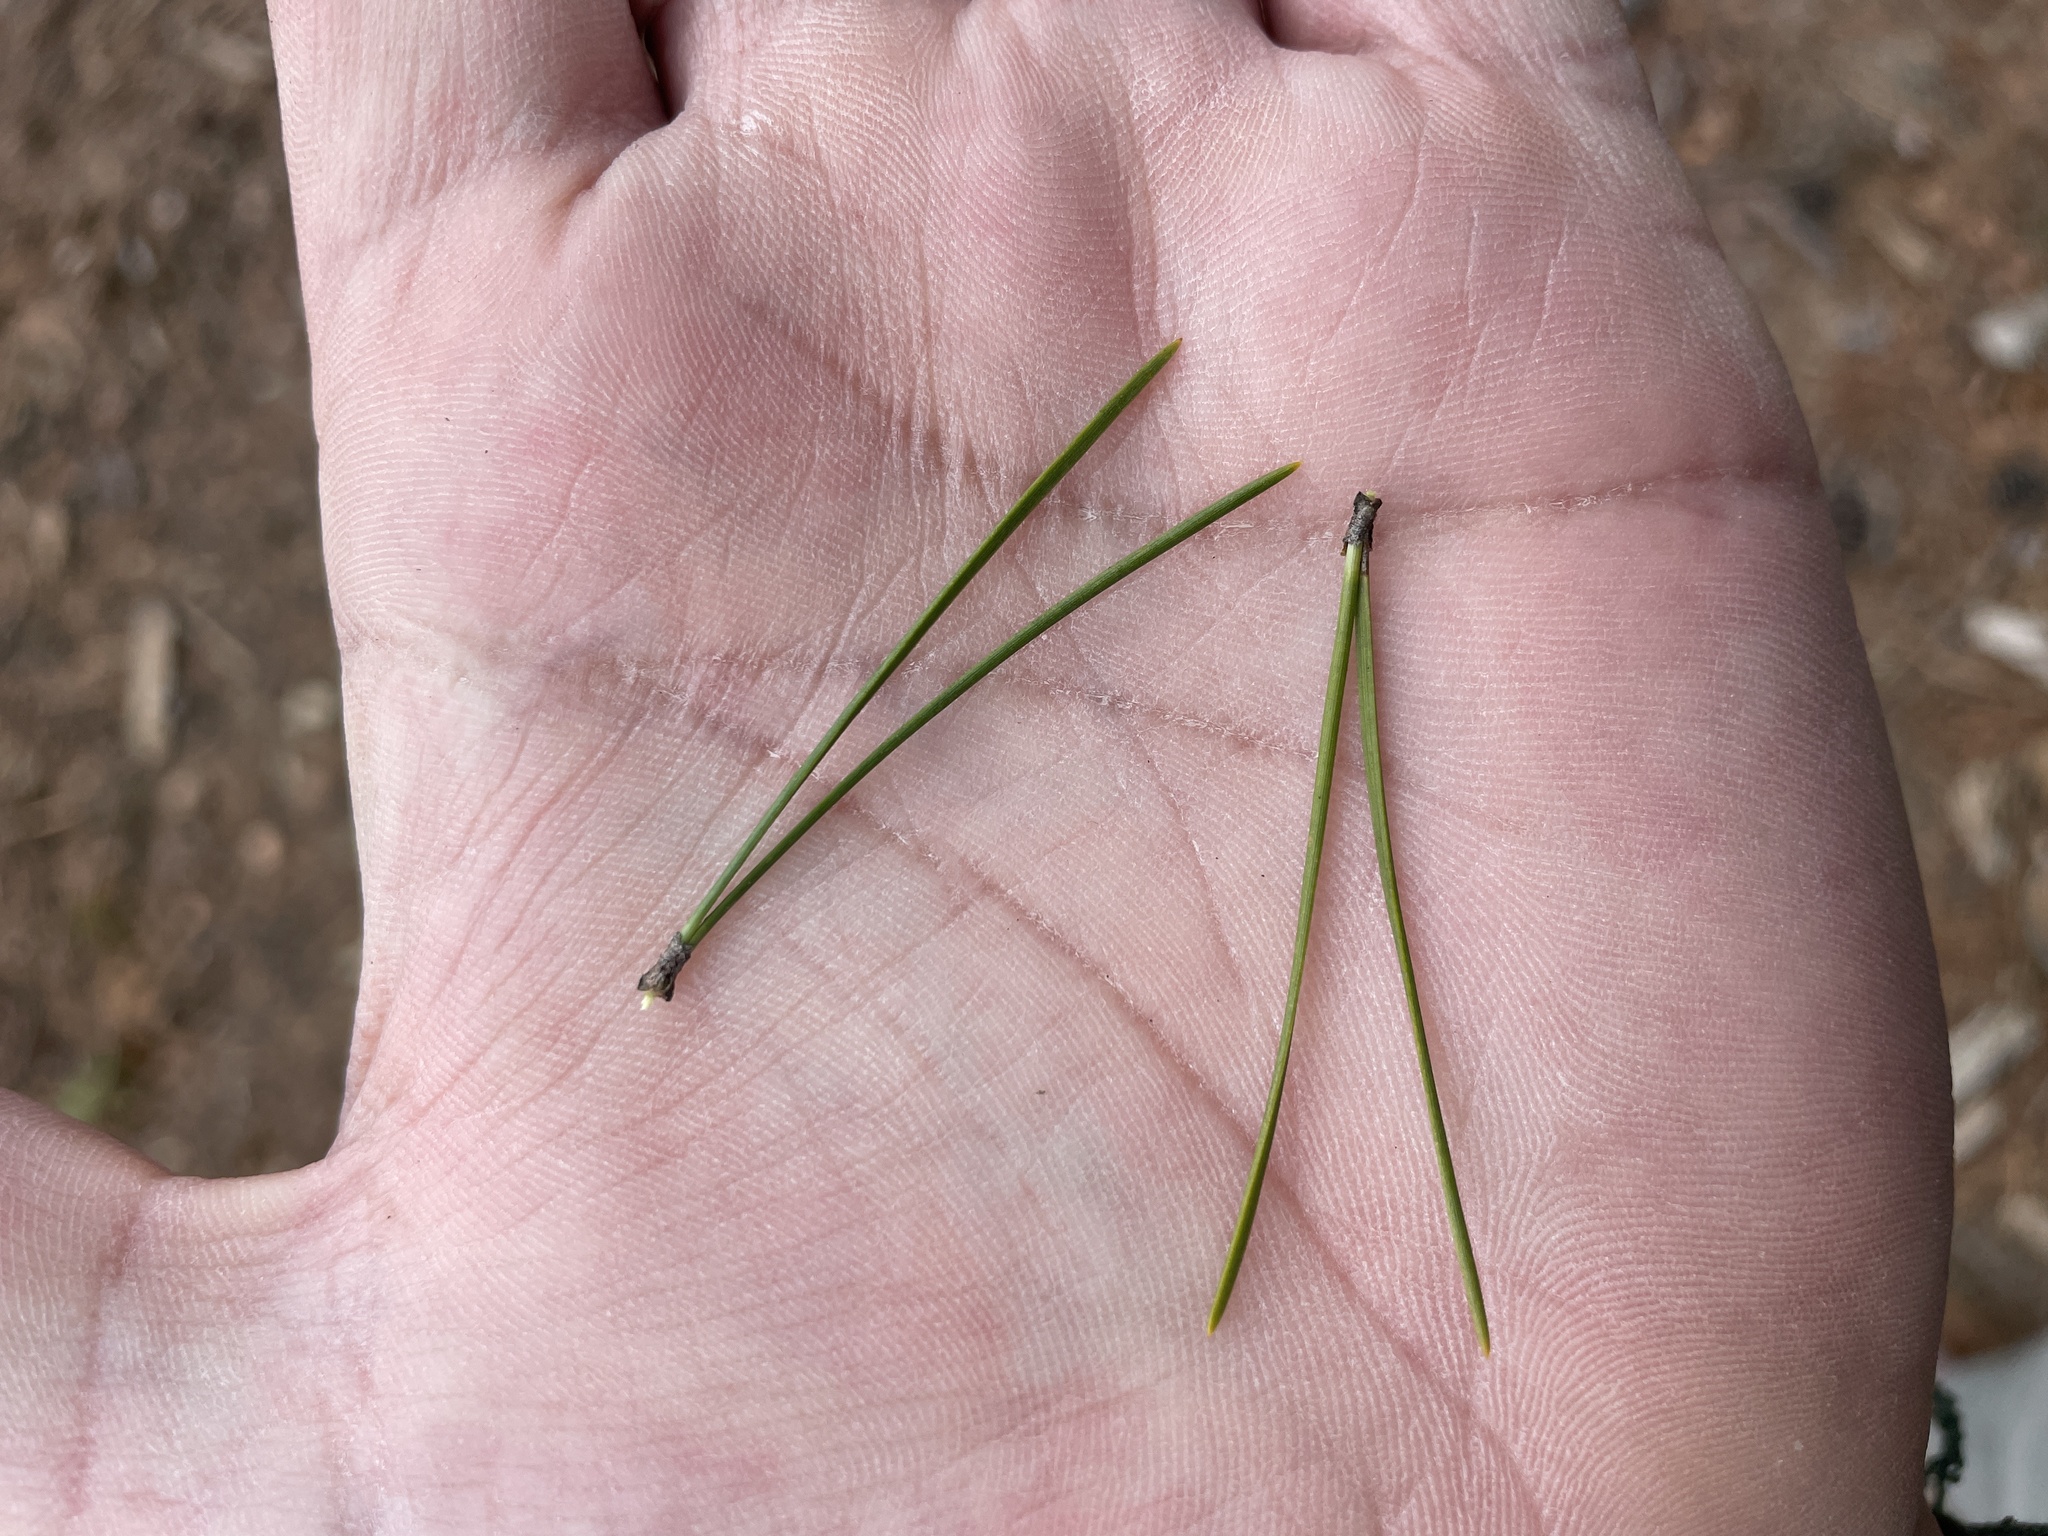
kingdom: Plantae
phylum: Tracheophyta
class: Pinopsida
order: Pinales
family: Pinaceae
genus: Pinus
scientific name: Pinus echinata
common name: Shortleaf pine
